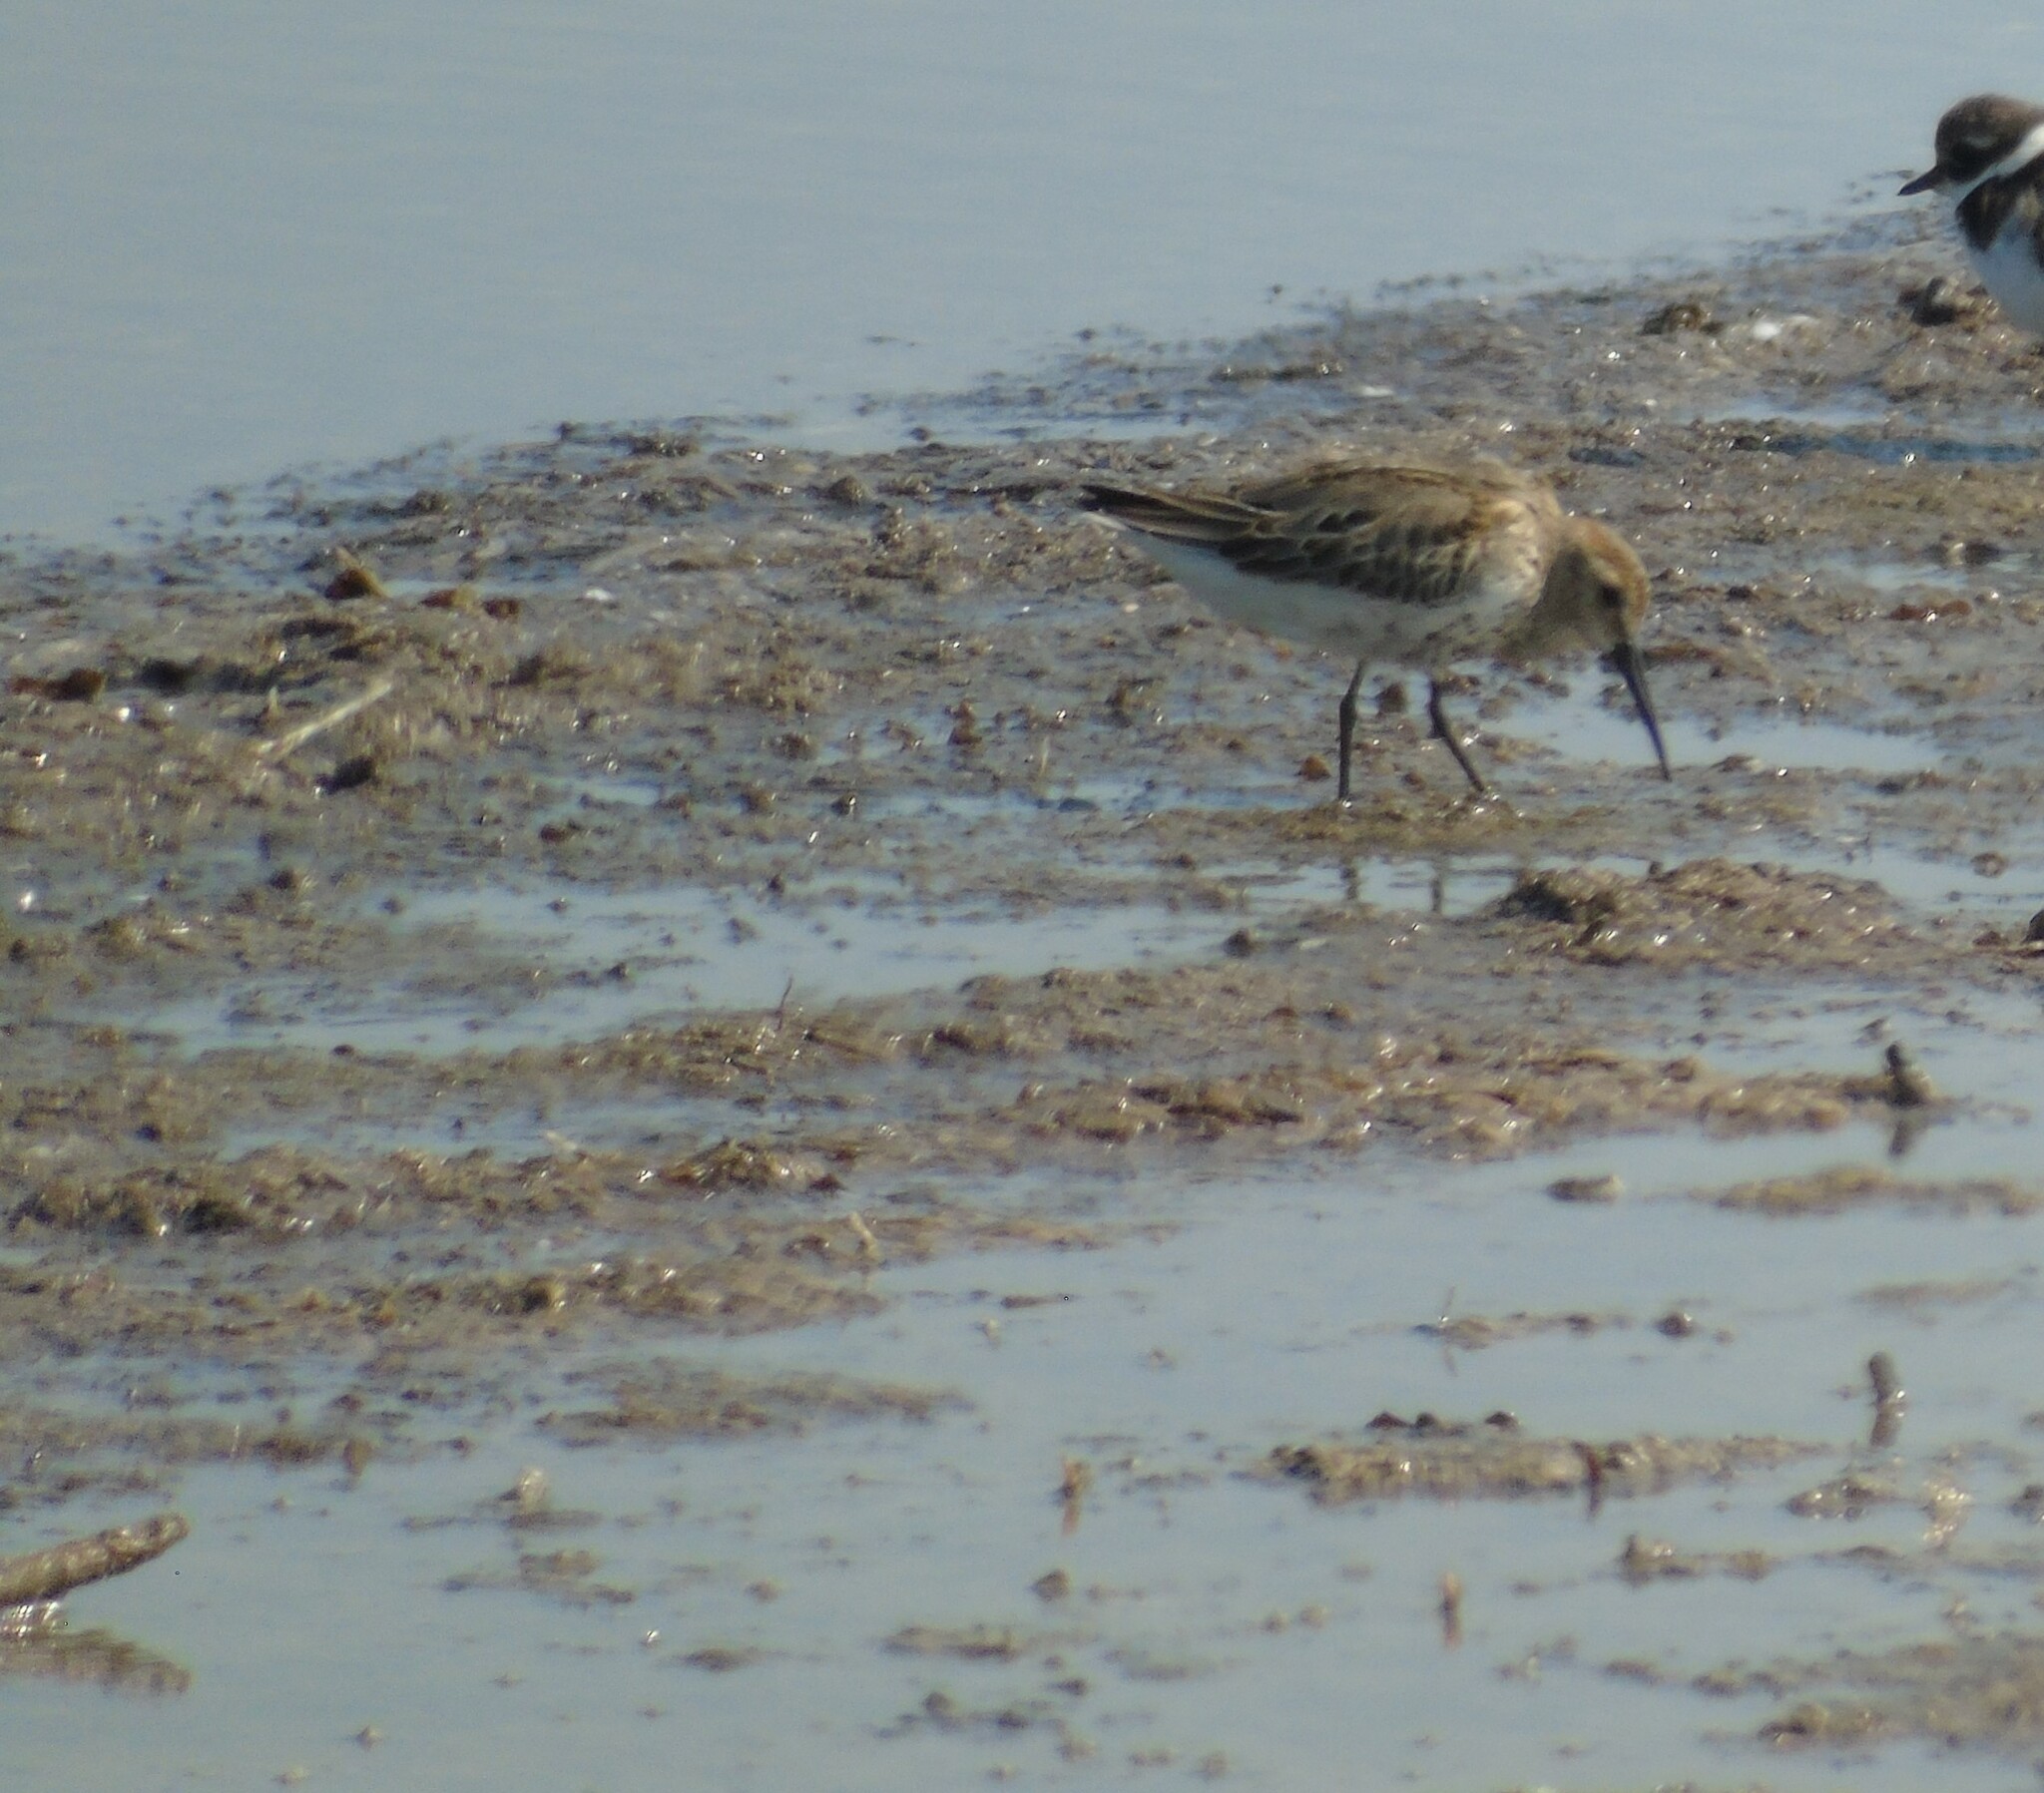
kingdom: Animalia
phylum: Chordata
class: Aves
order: Charadriiformes
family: Scolopacidae
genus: Calidris
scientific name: Calidris alpina
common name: Dunlin
